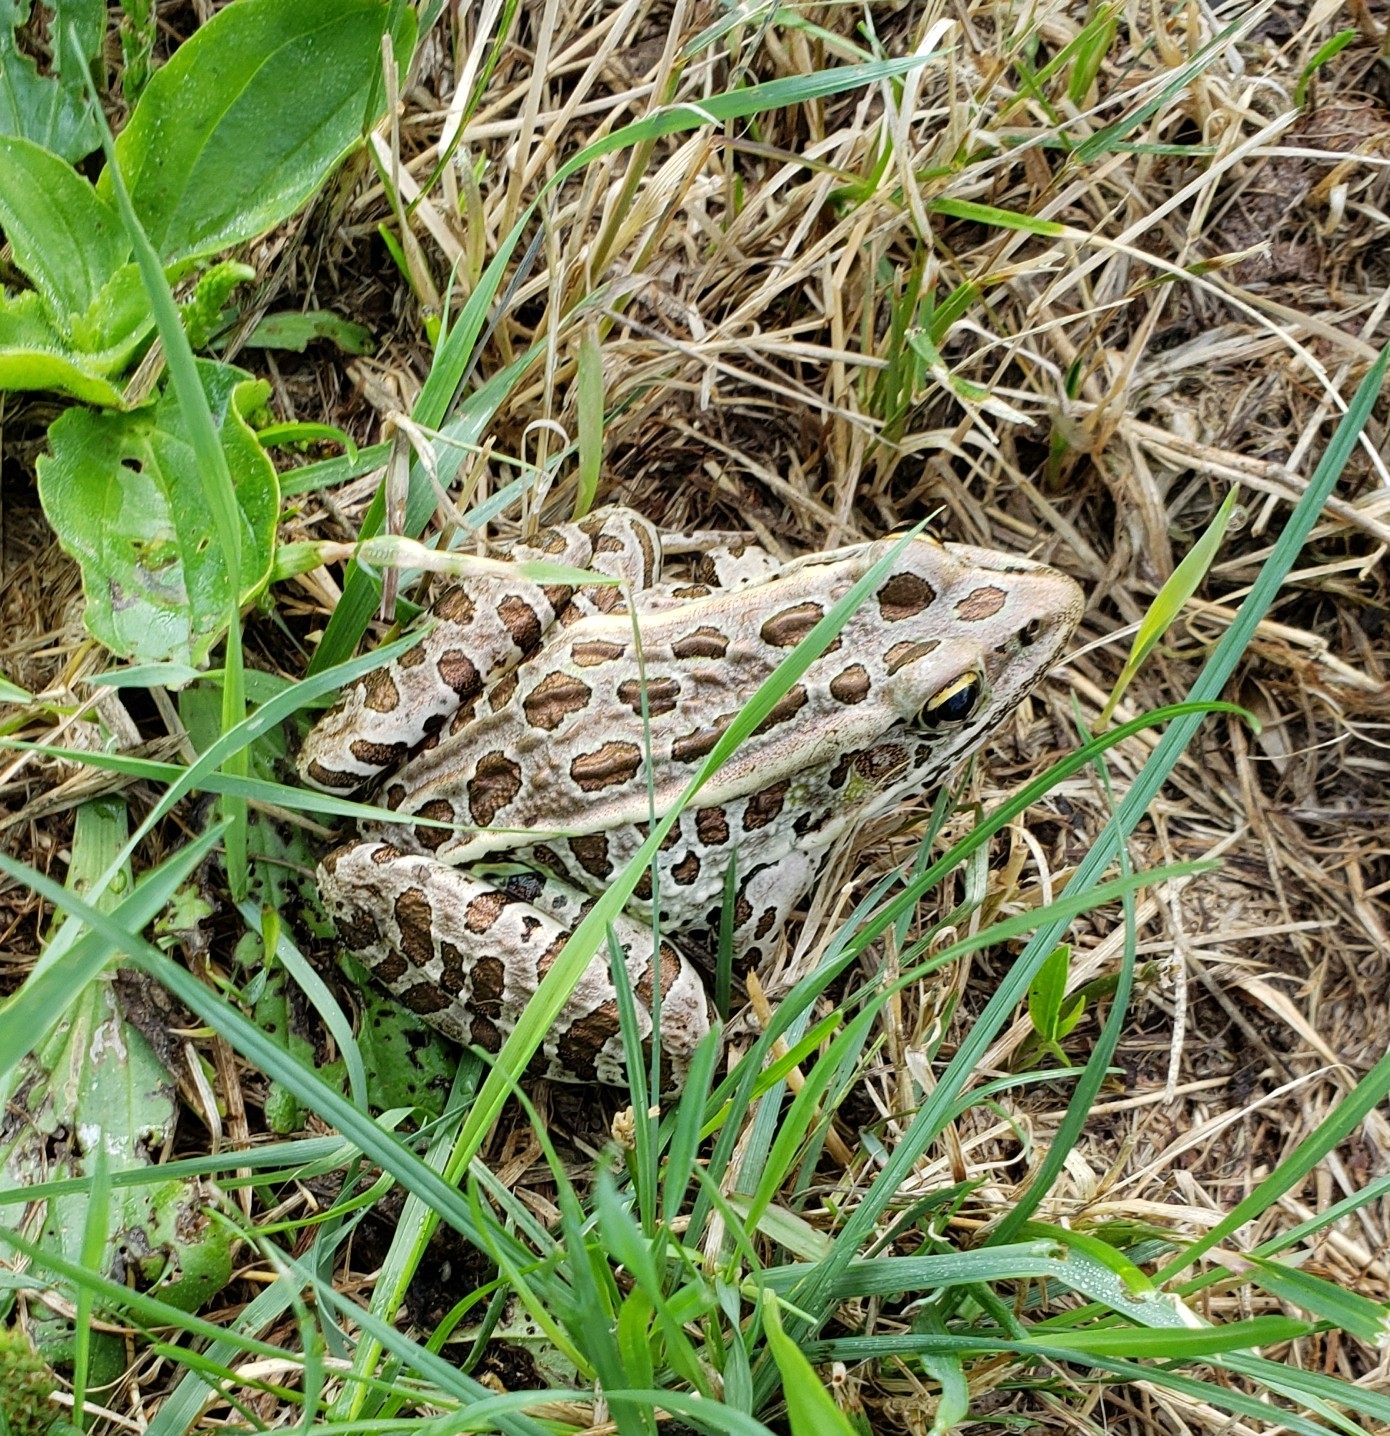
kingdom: Animalia
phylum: Chordata
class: Amphibia
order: Anura
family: Ranidae
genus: Lithobates
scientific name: Lithobates pipiens
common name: Northern leopard frog
